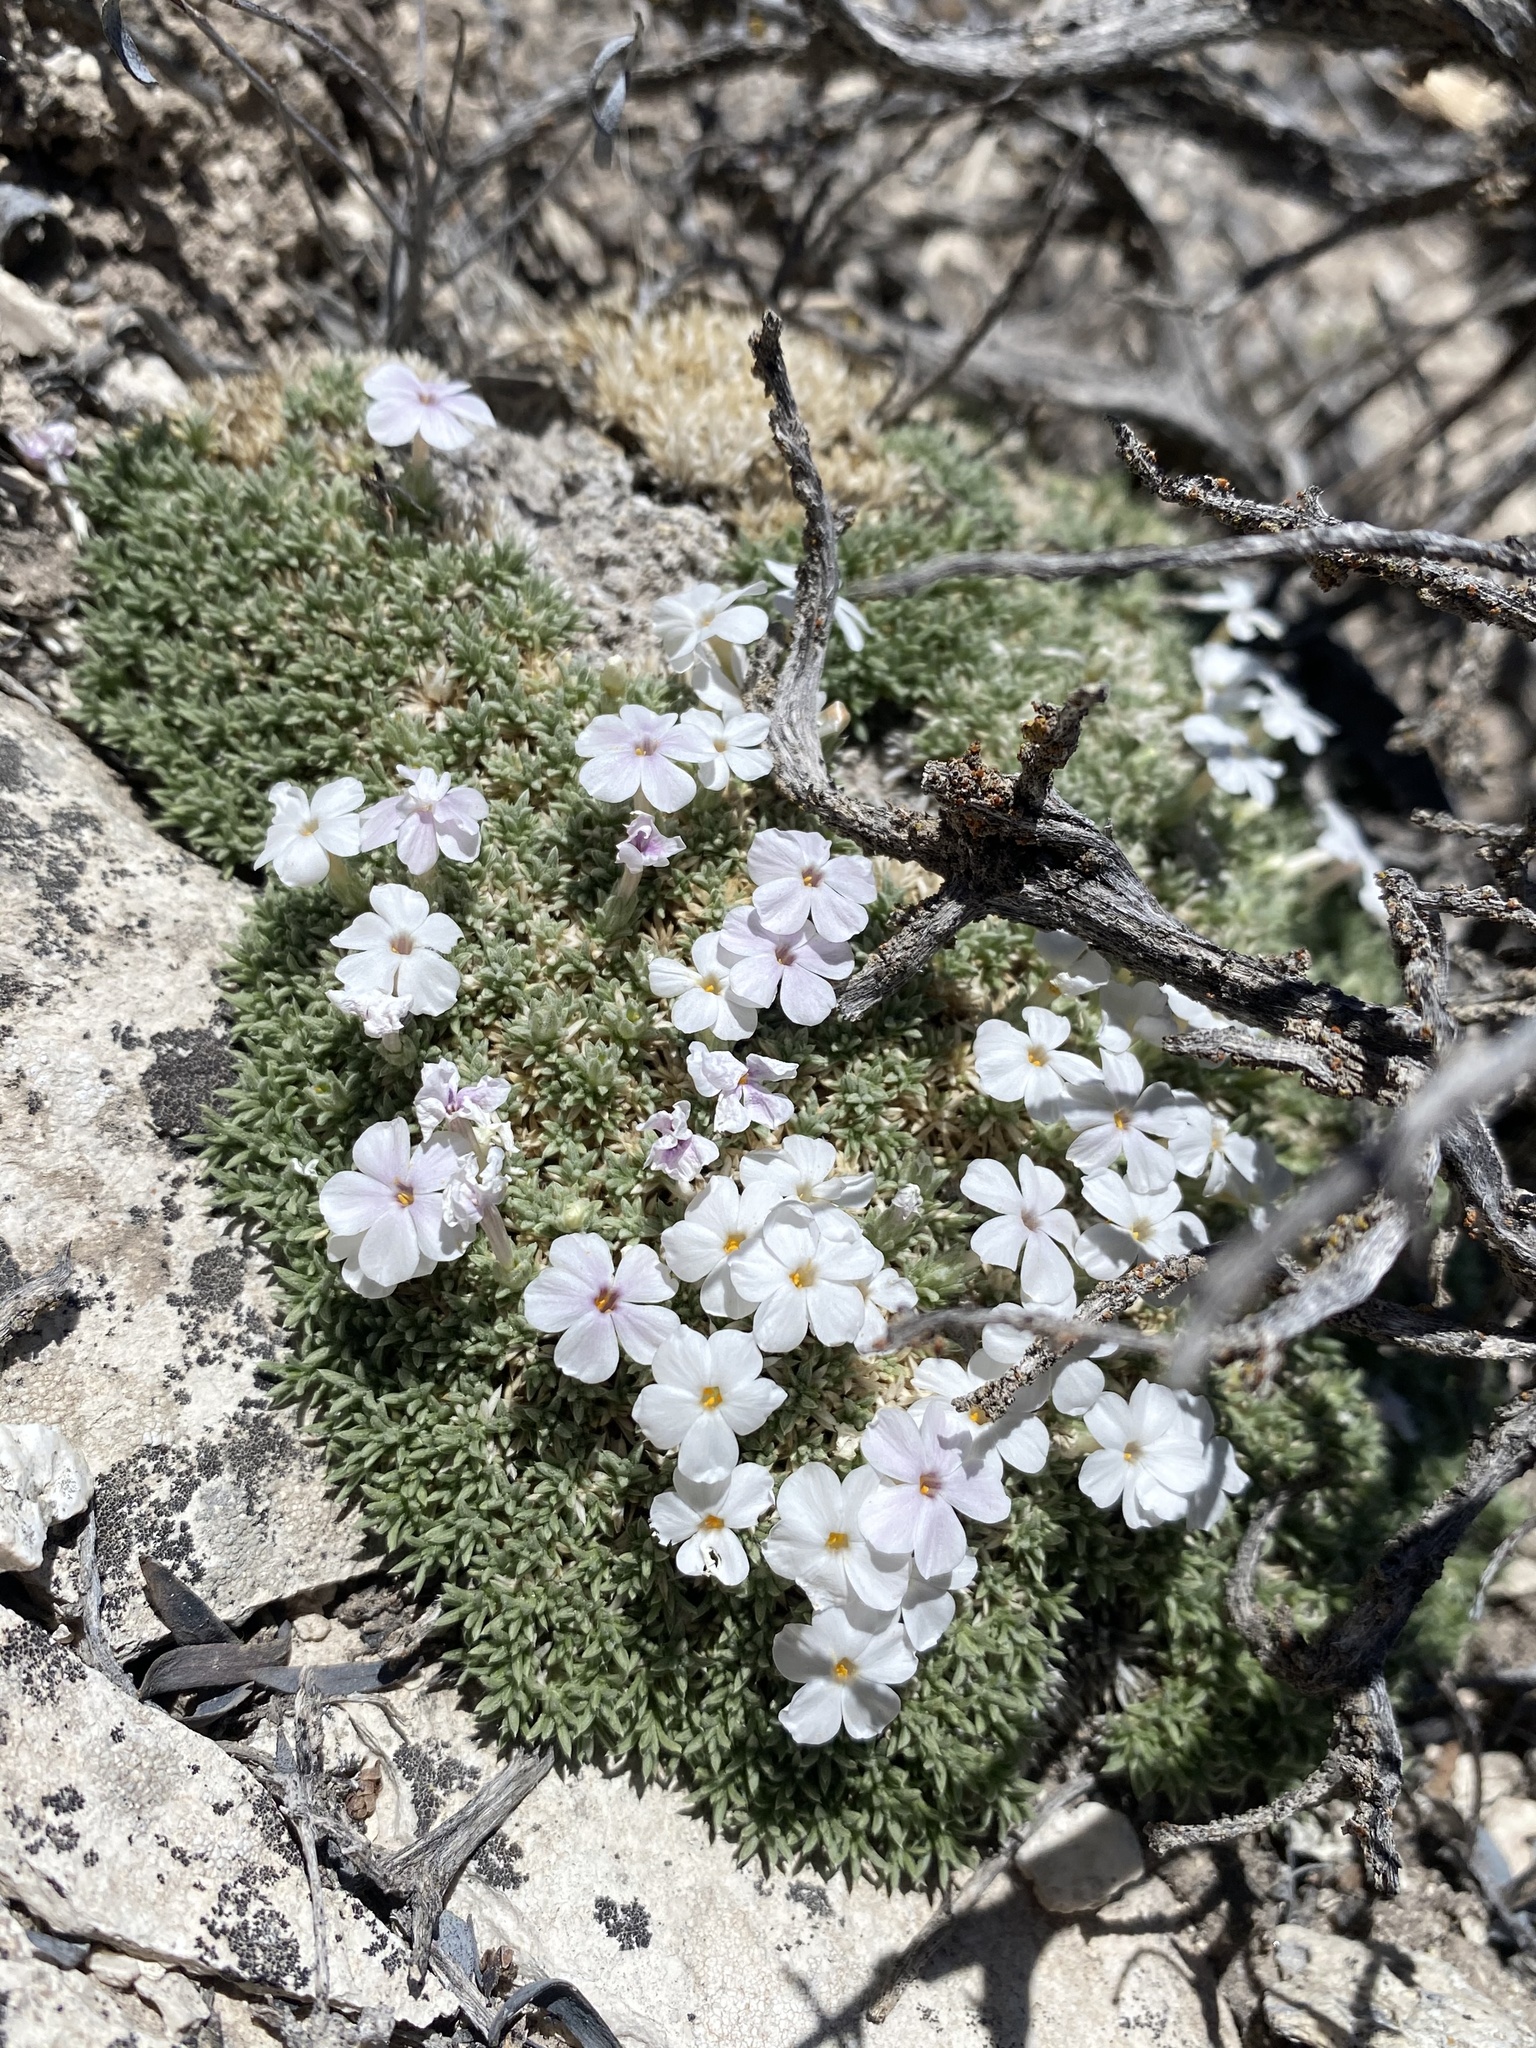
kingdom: Plantae
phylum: Tracheophyta
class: Magnoliopsida
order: Ericales
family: Polemoniaceae
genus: Phlox
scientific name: Phlox griseola
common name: Gray-leaf phlox
